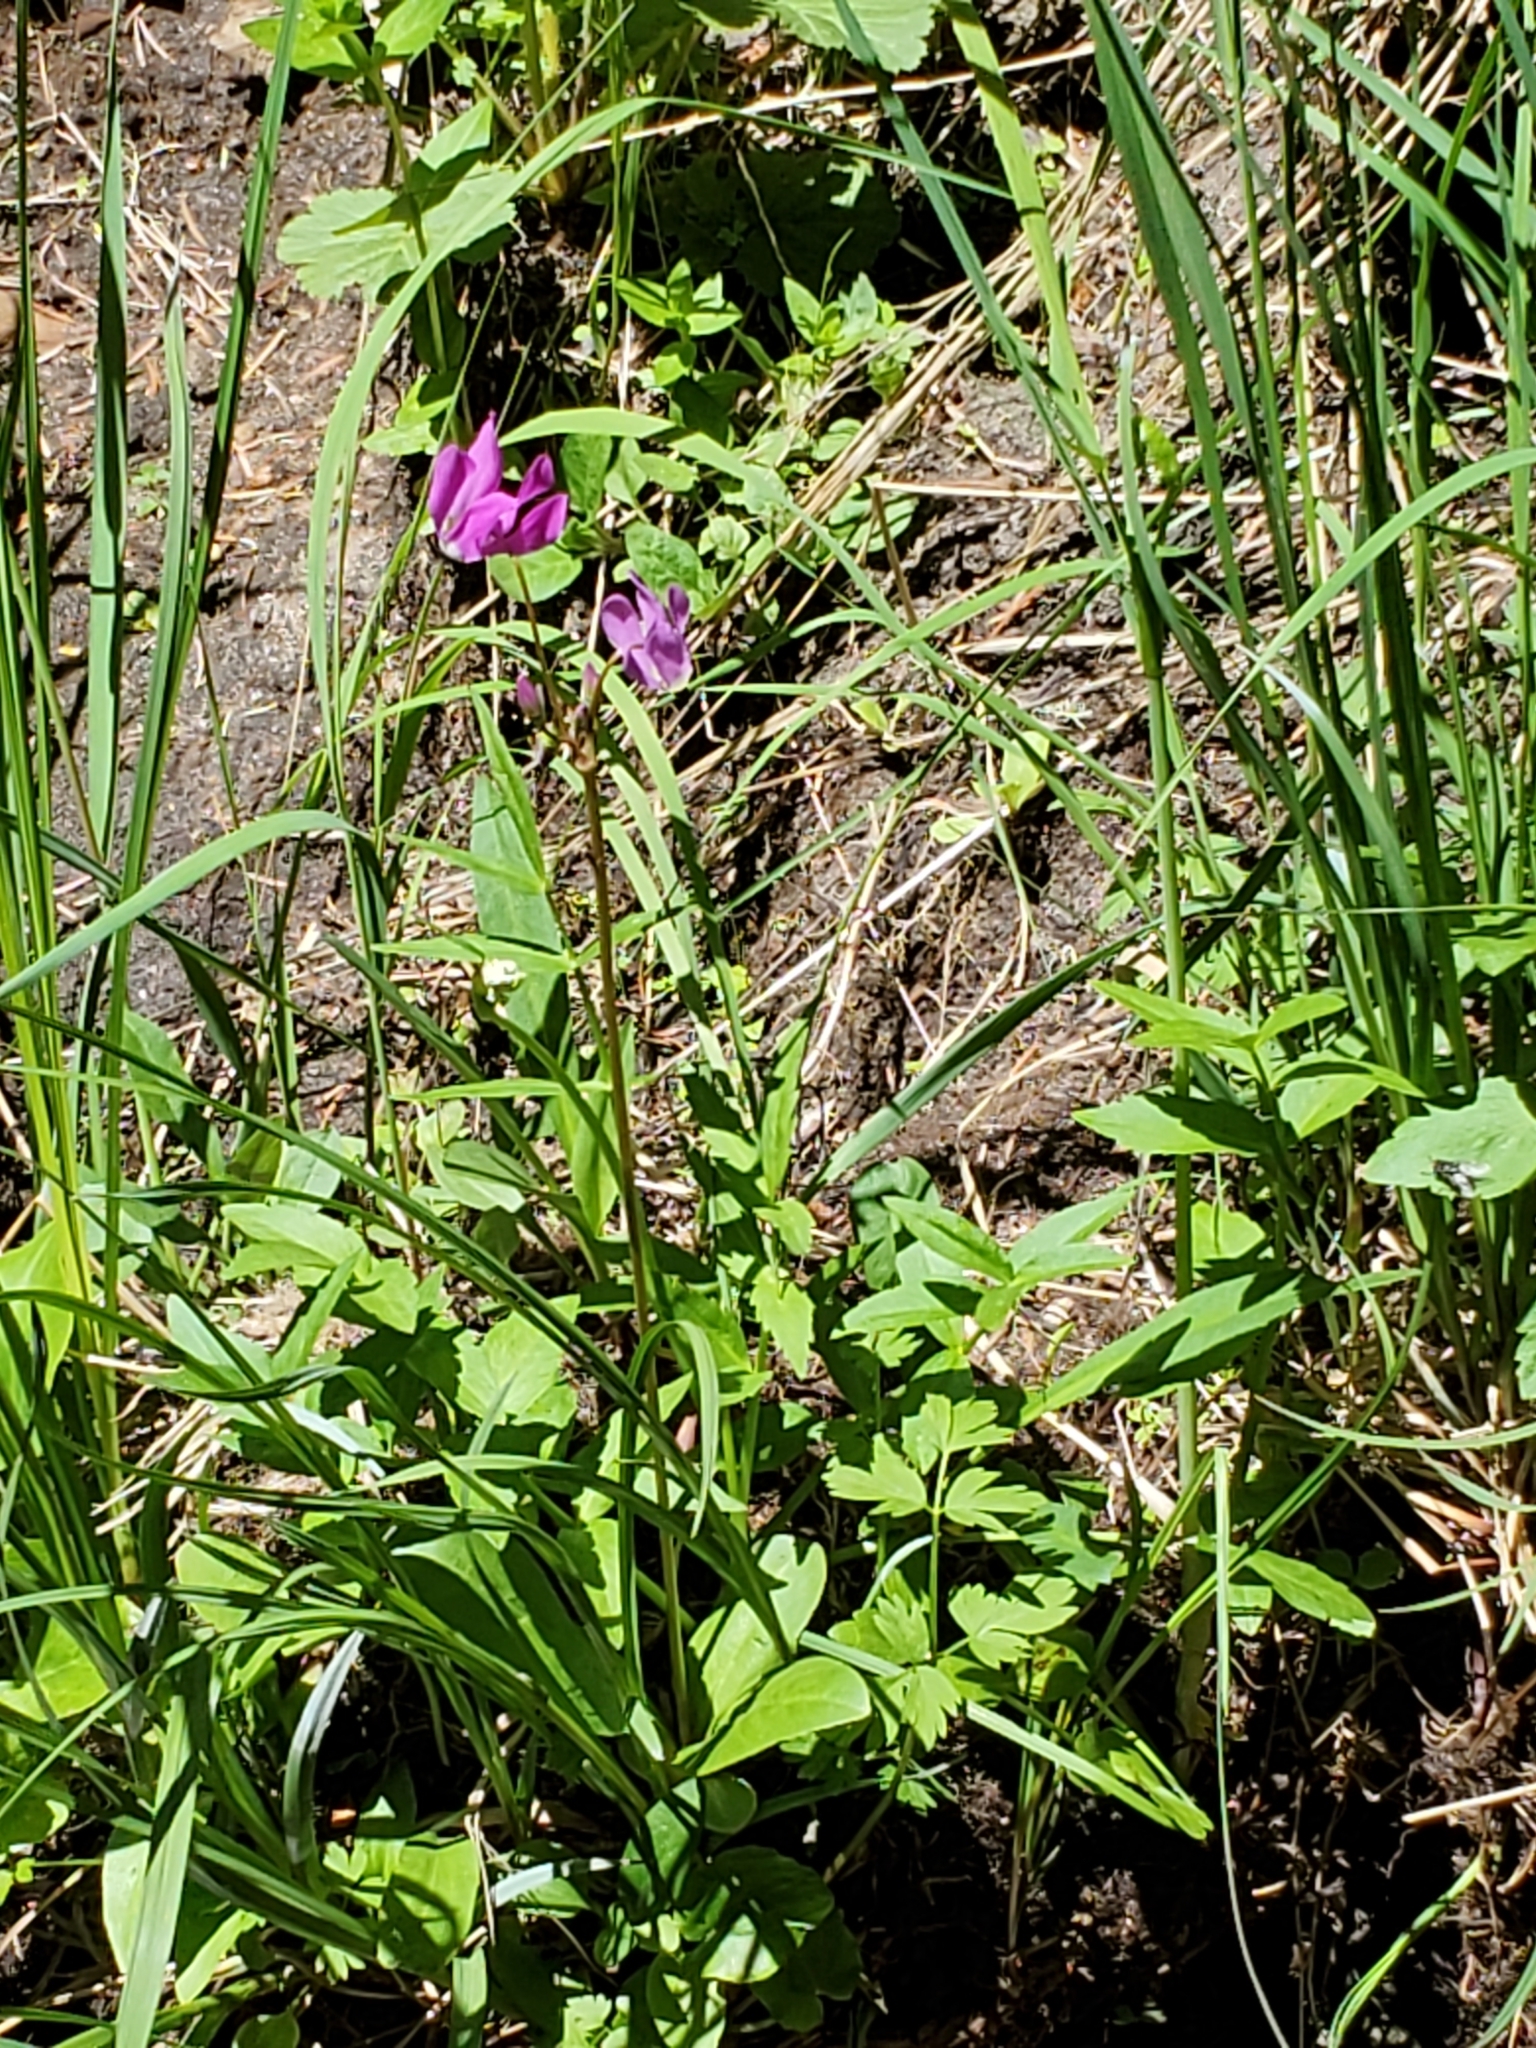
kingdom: Plantae
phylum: Tracheophyta
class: Magnoliopsida
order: Ericales
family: Primulaceae
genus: Dodecatheon
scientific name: Dodecatheon pulchellum
